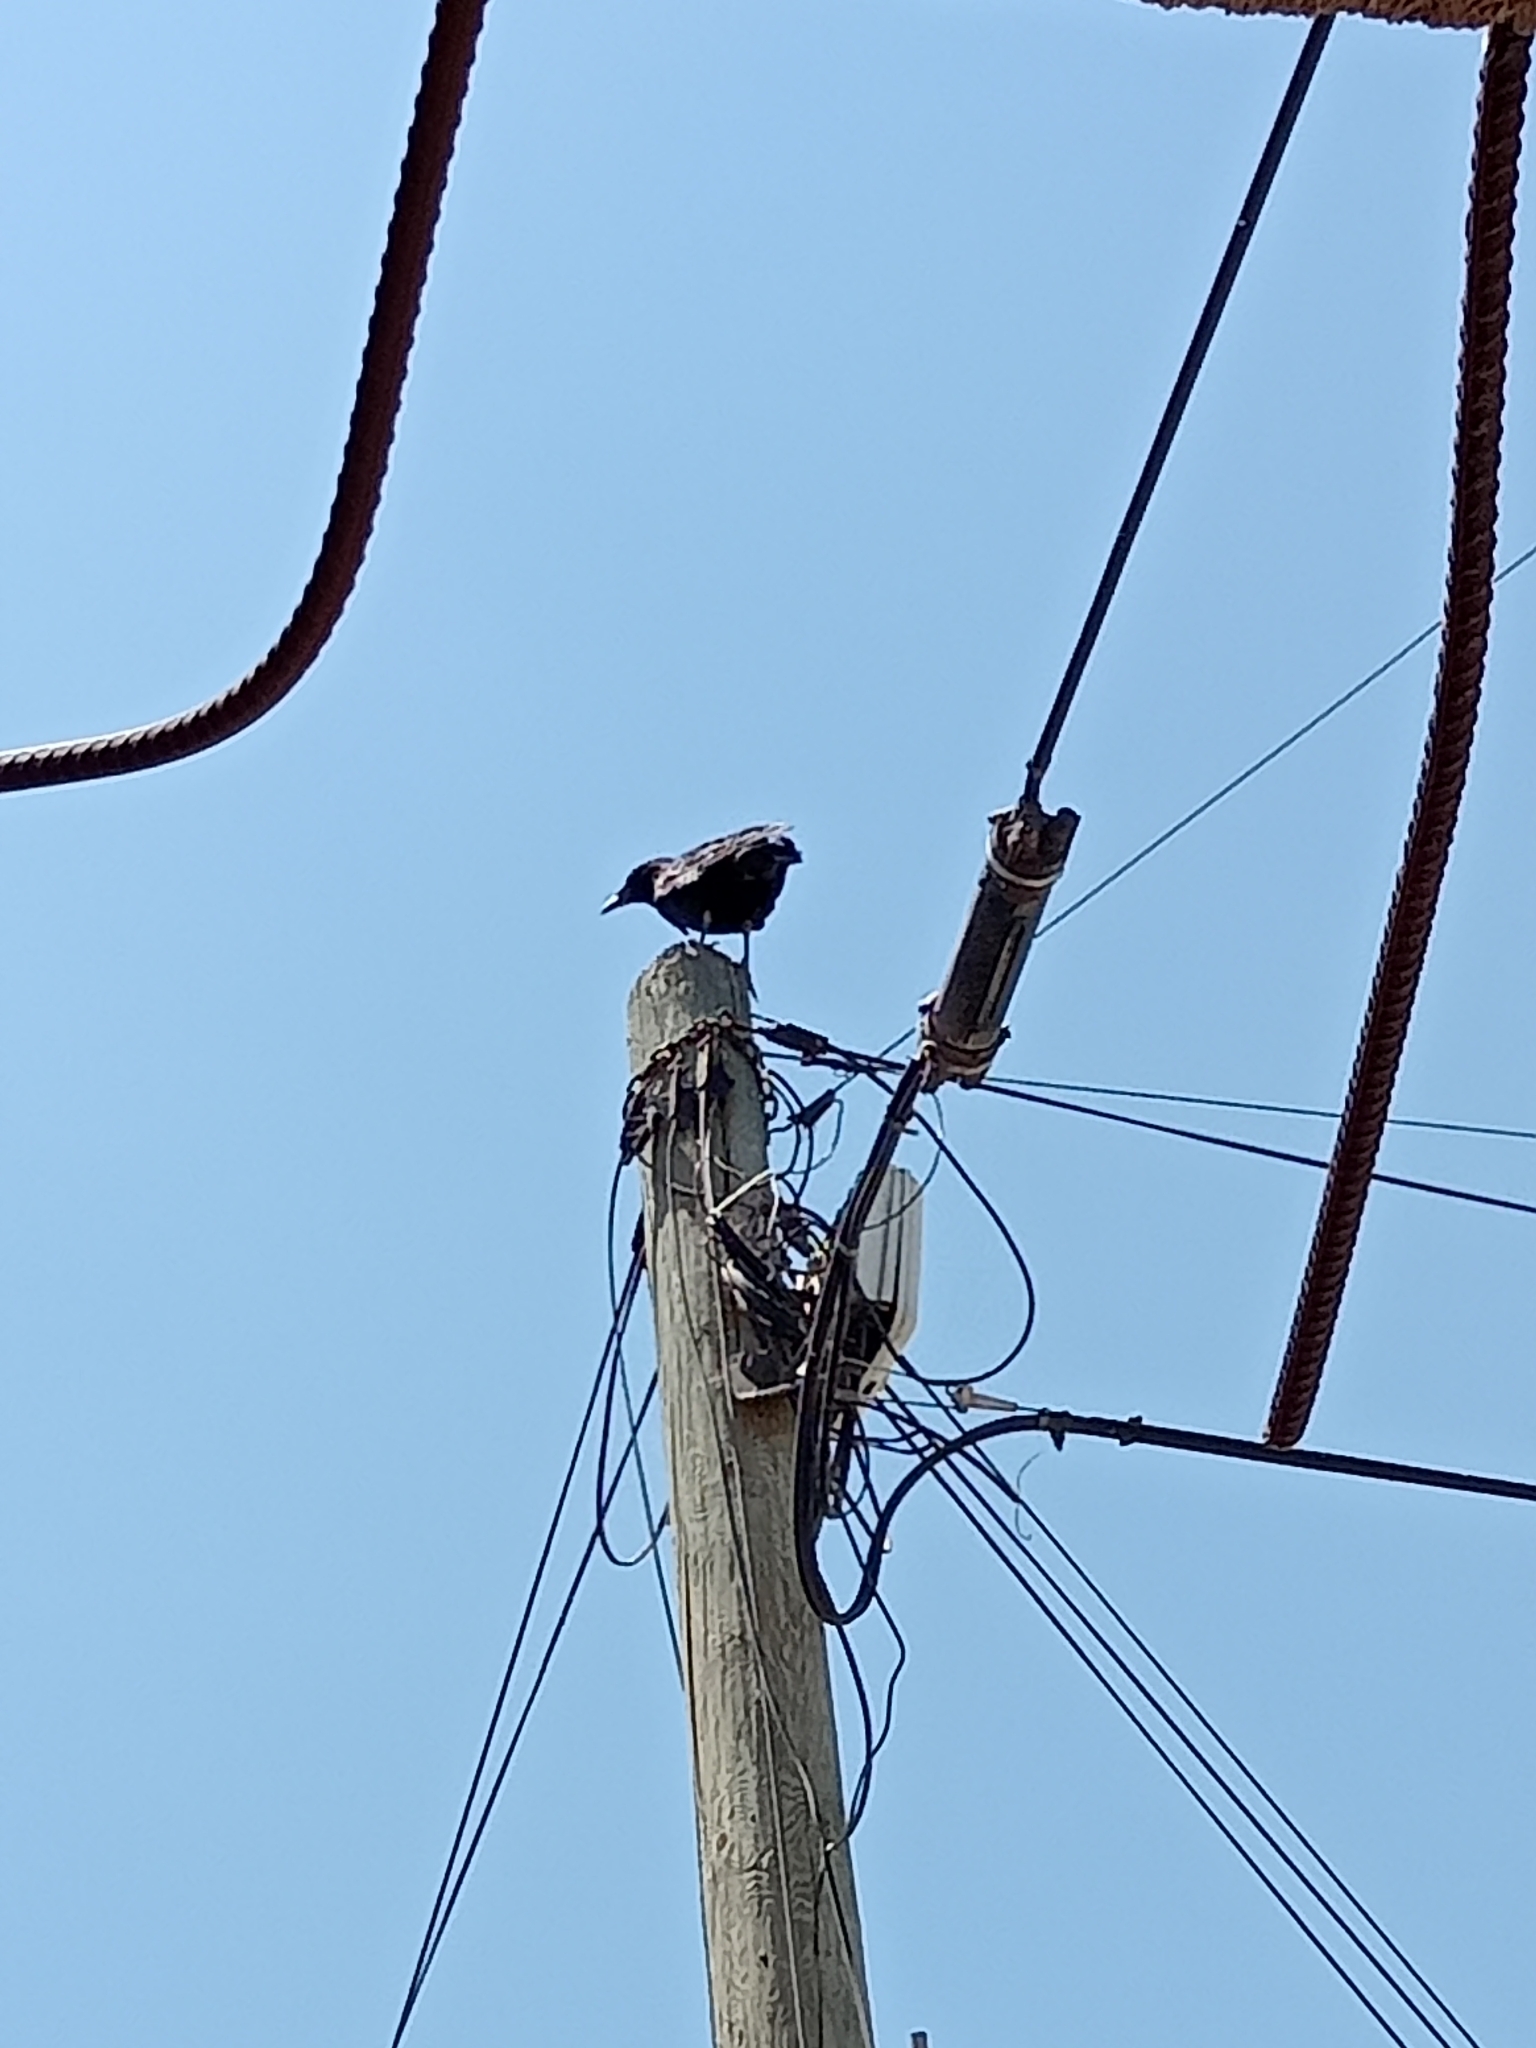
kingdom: Animalia
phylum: Chordata
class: Aves
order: Passeriformes
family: Corvidae
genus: Corvus
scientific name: Corvus corax
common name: Common raven
